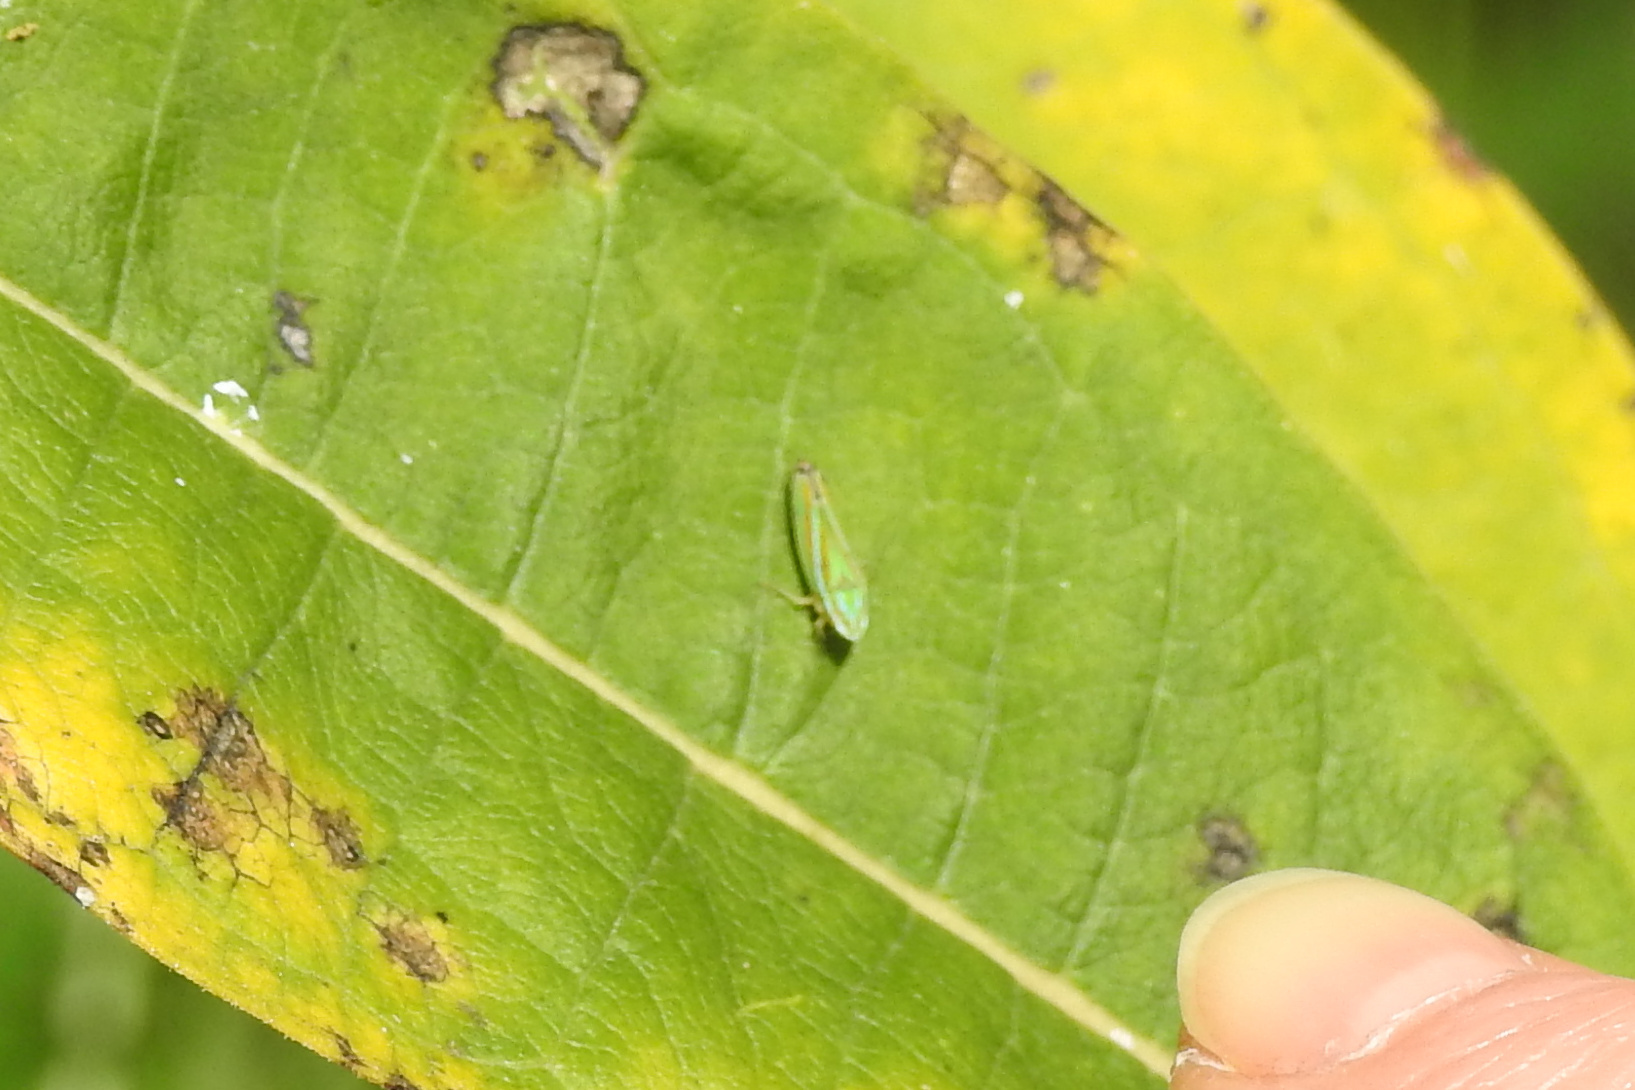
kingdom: Animalia
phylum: Arthropoda
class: Insecta
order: Hemiptera
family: Cicadellidae
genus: Graphocephala
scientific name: Graphocephala versuta
